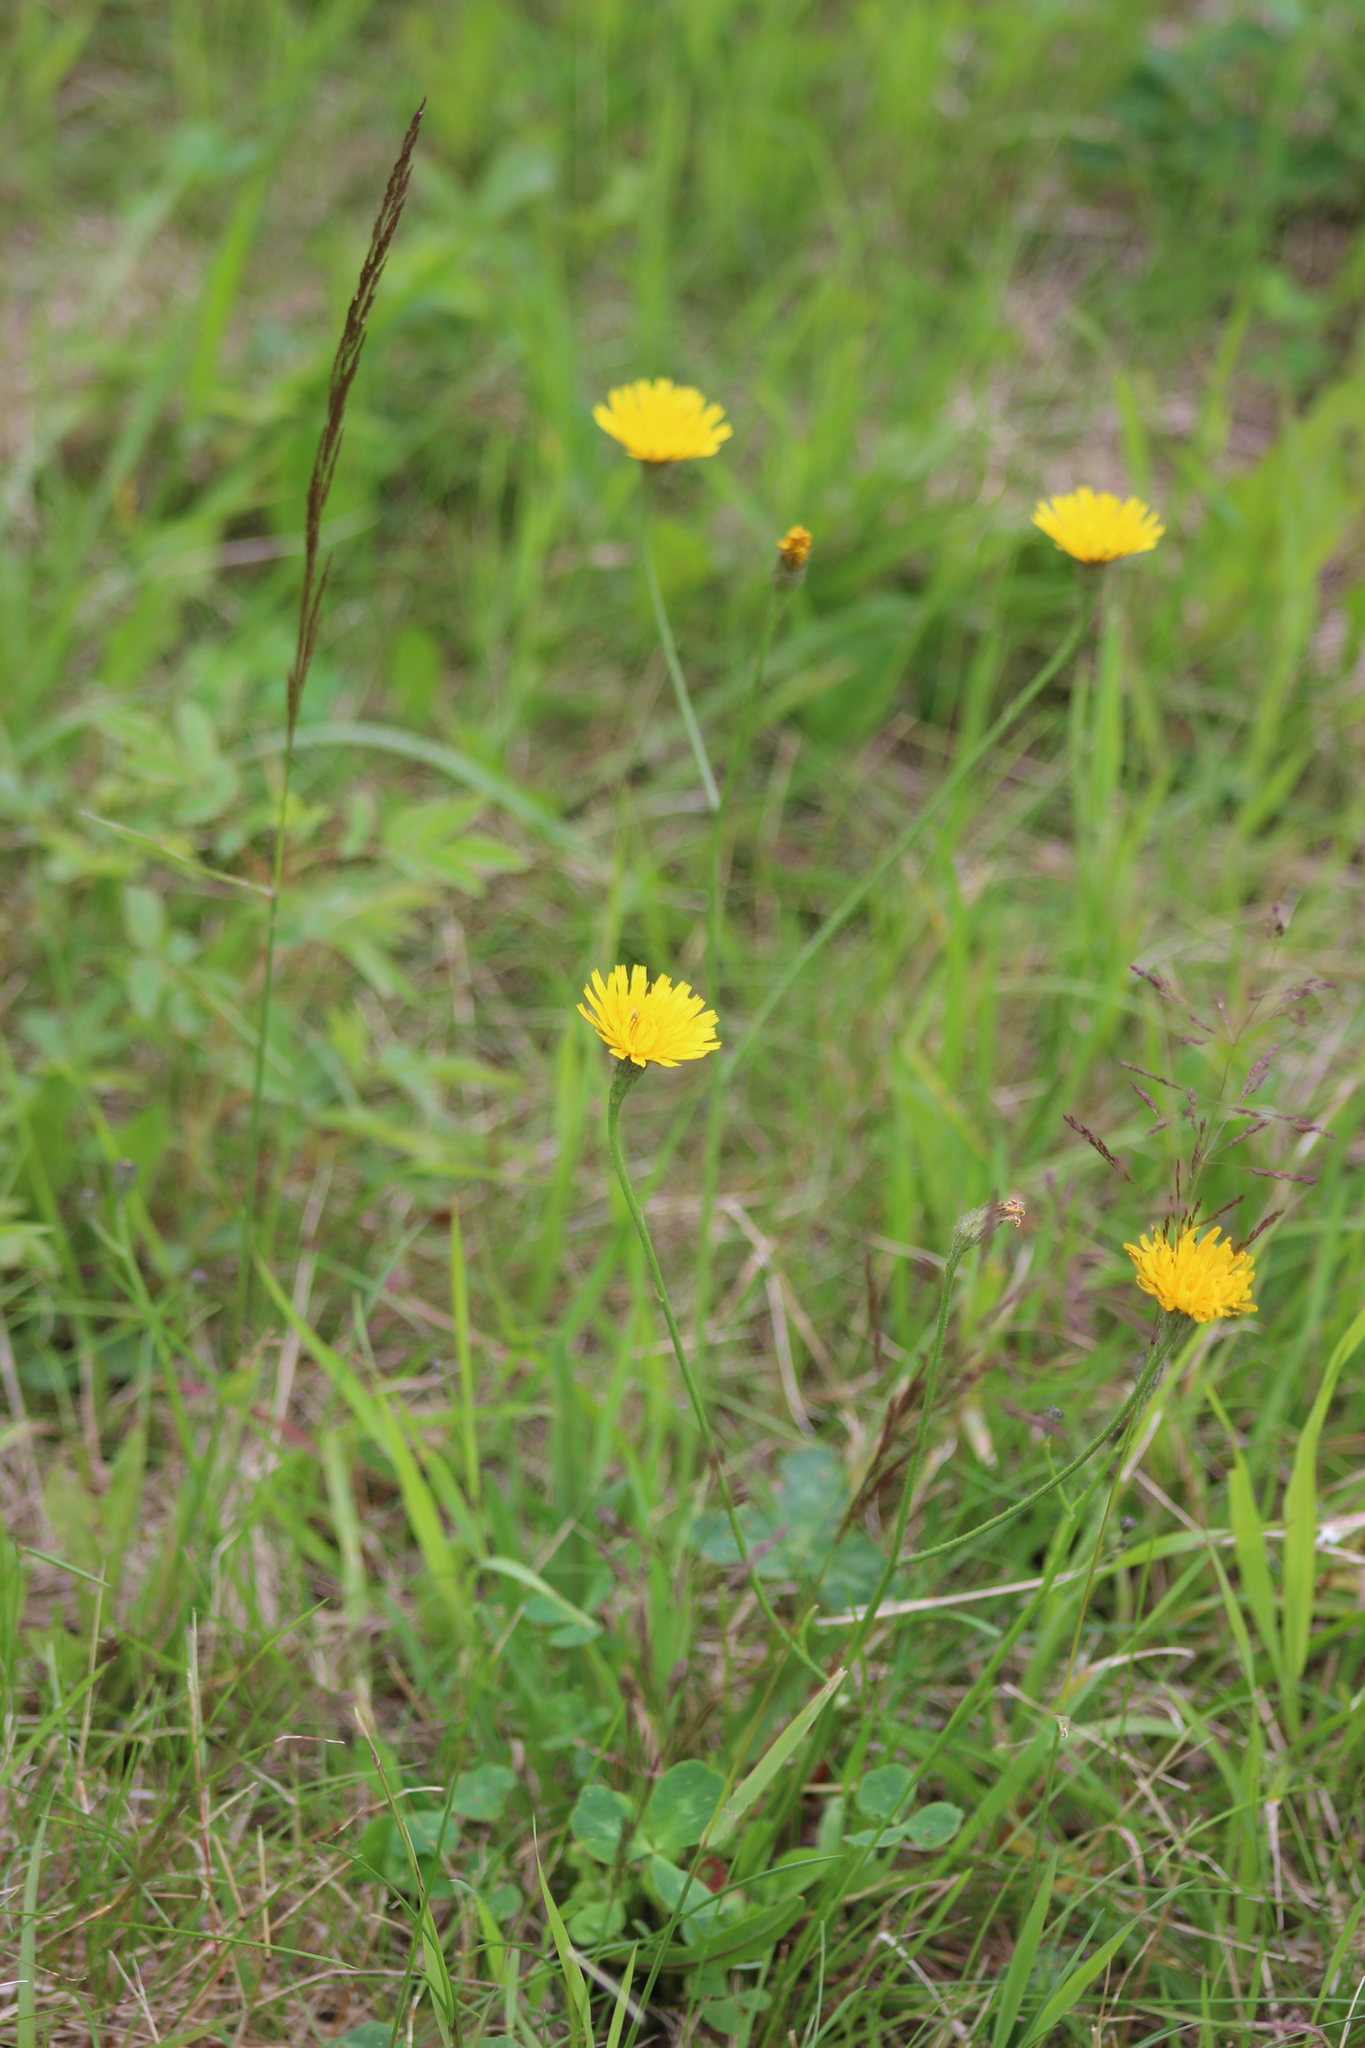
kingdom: Plantae
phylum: Tracheophyta
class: Magnoliopsida
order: Asterales
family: Asteraceae
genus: Scorzoneroides
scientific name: Scorzoneroides autumnalis
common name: Autumn hawkbit
